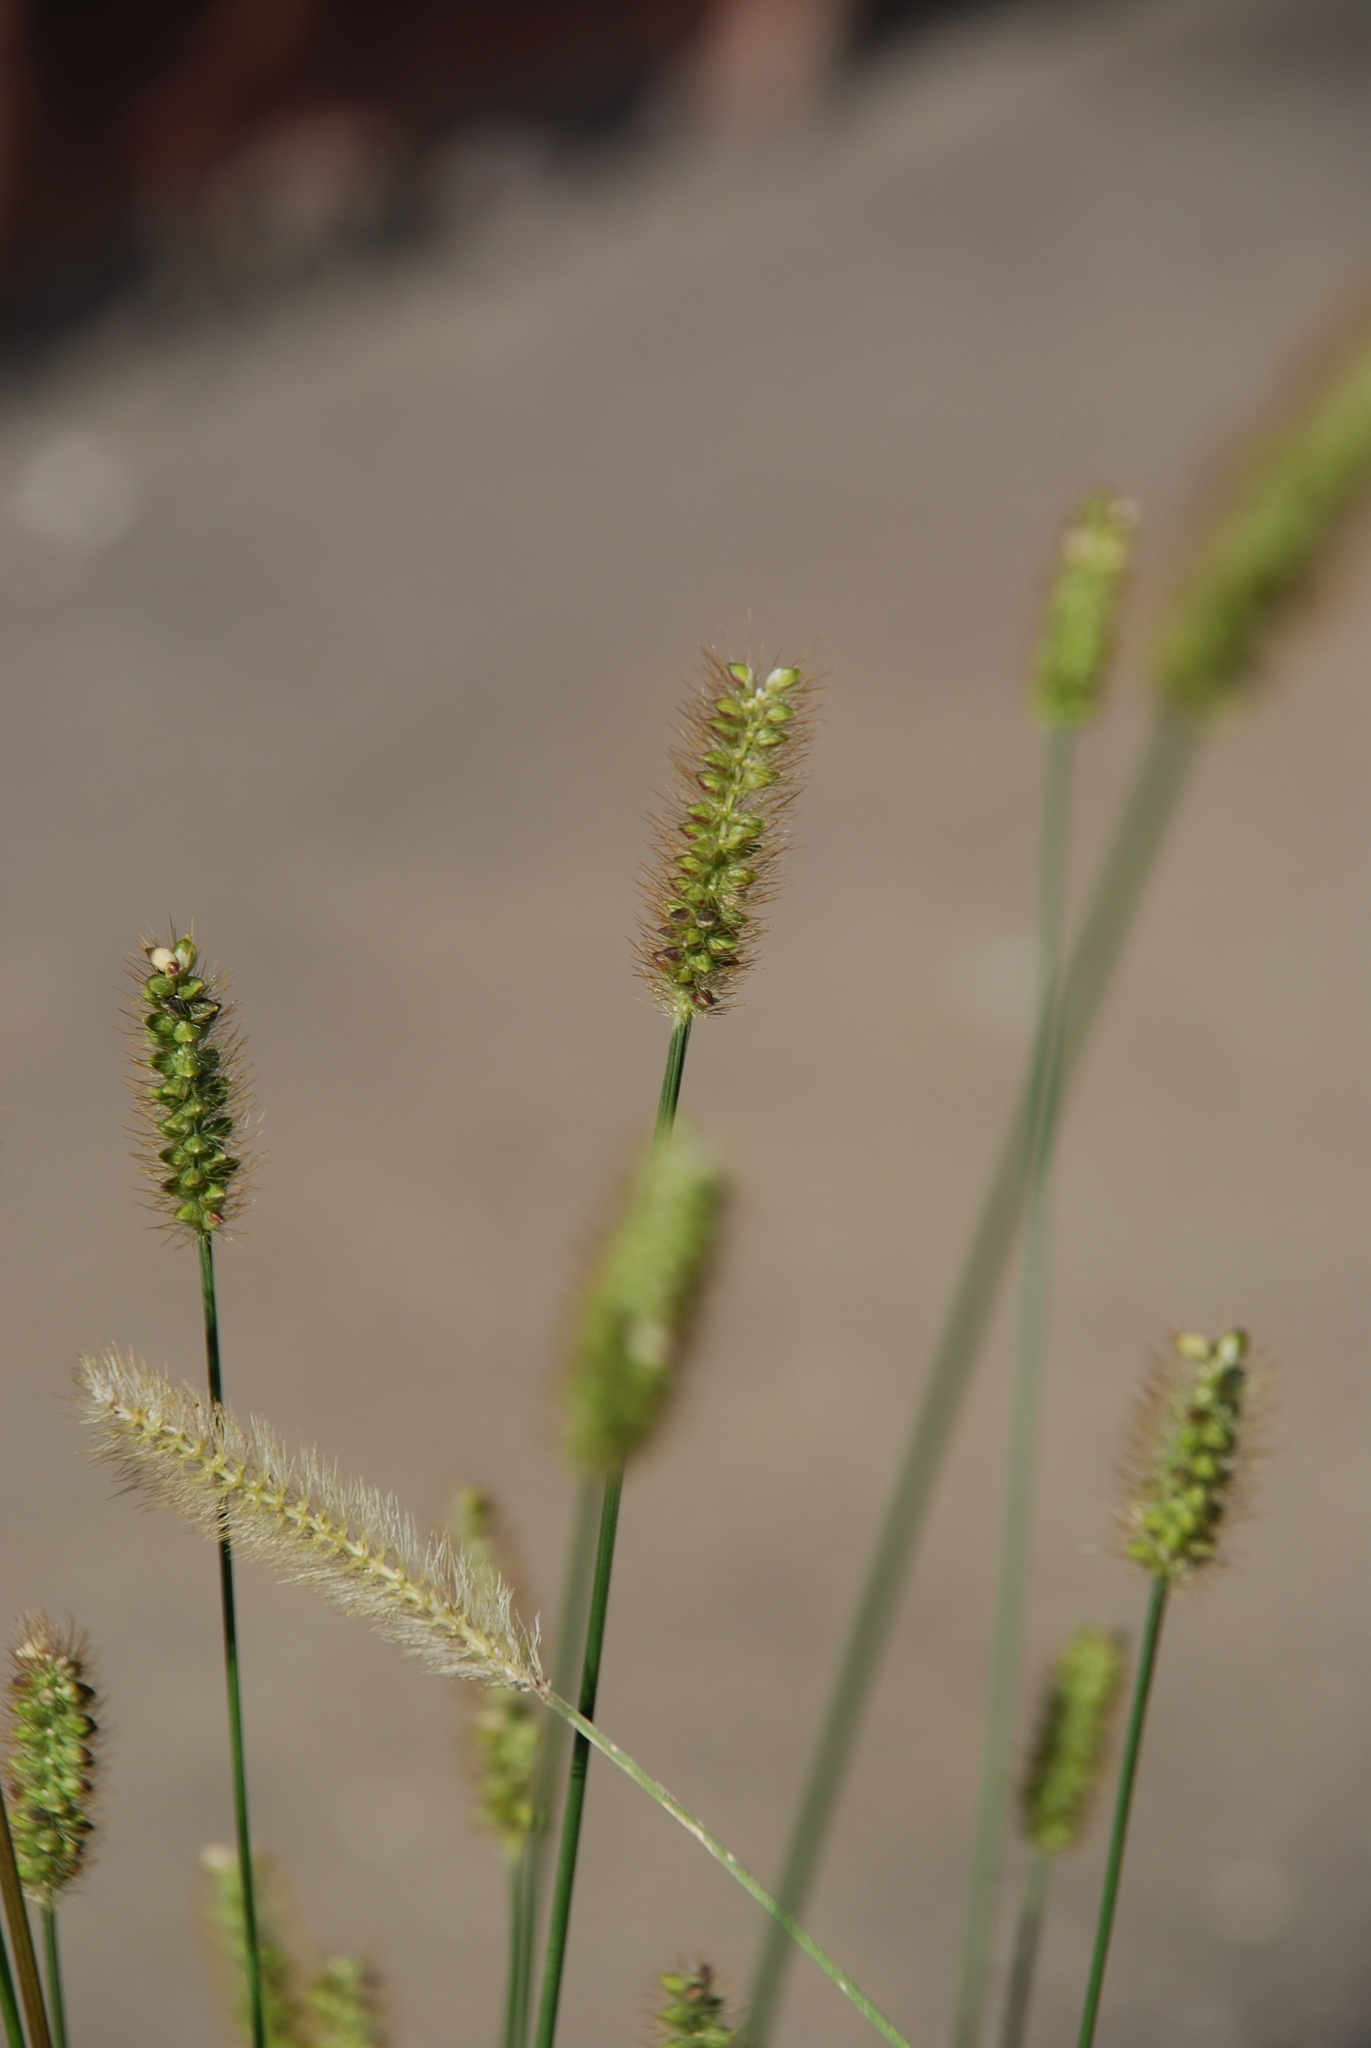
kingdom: Plantae
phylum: Tracheophyta
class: Liliopsida
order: Poales
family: Poaceae
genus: Setaria
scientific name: Setaria pumila
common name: Yellow bristle-grass
